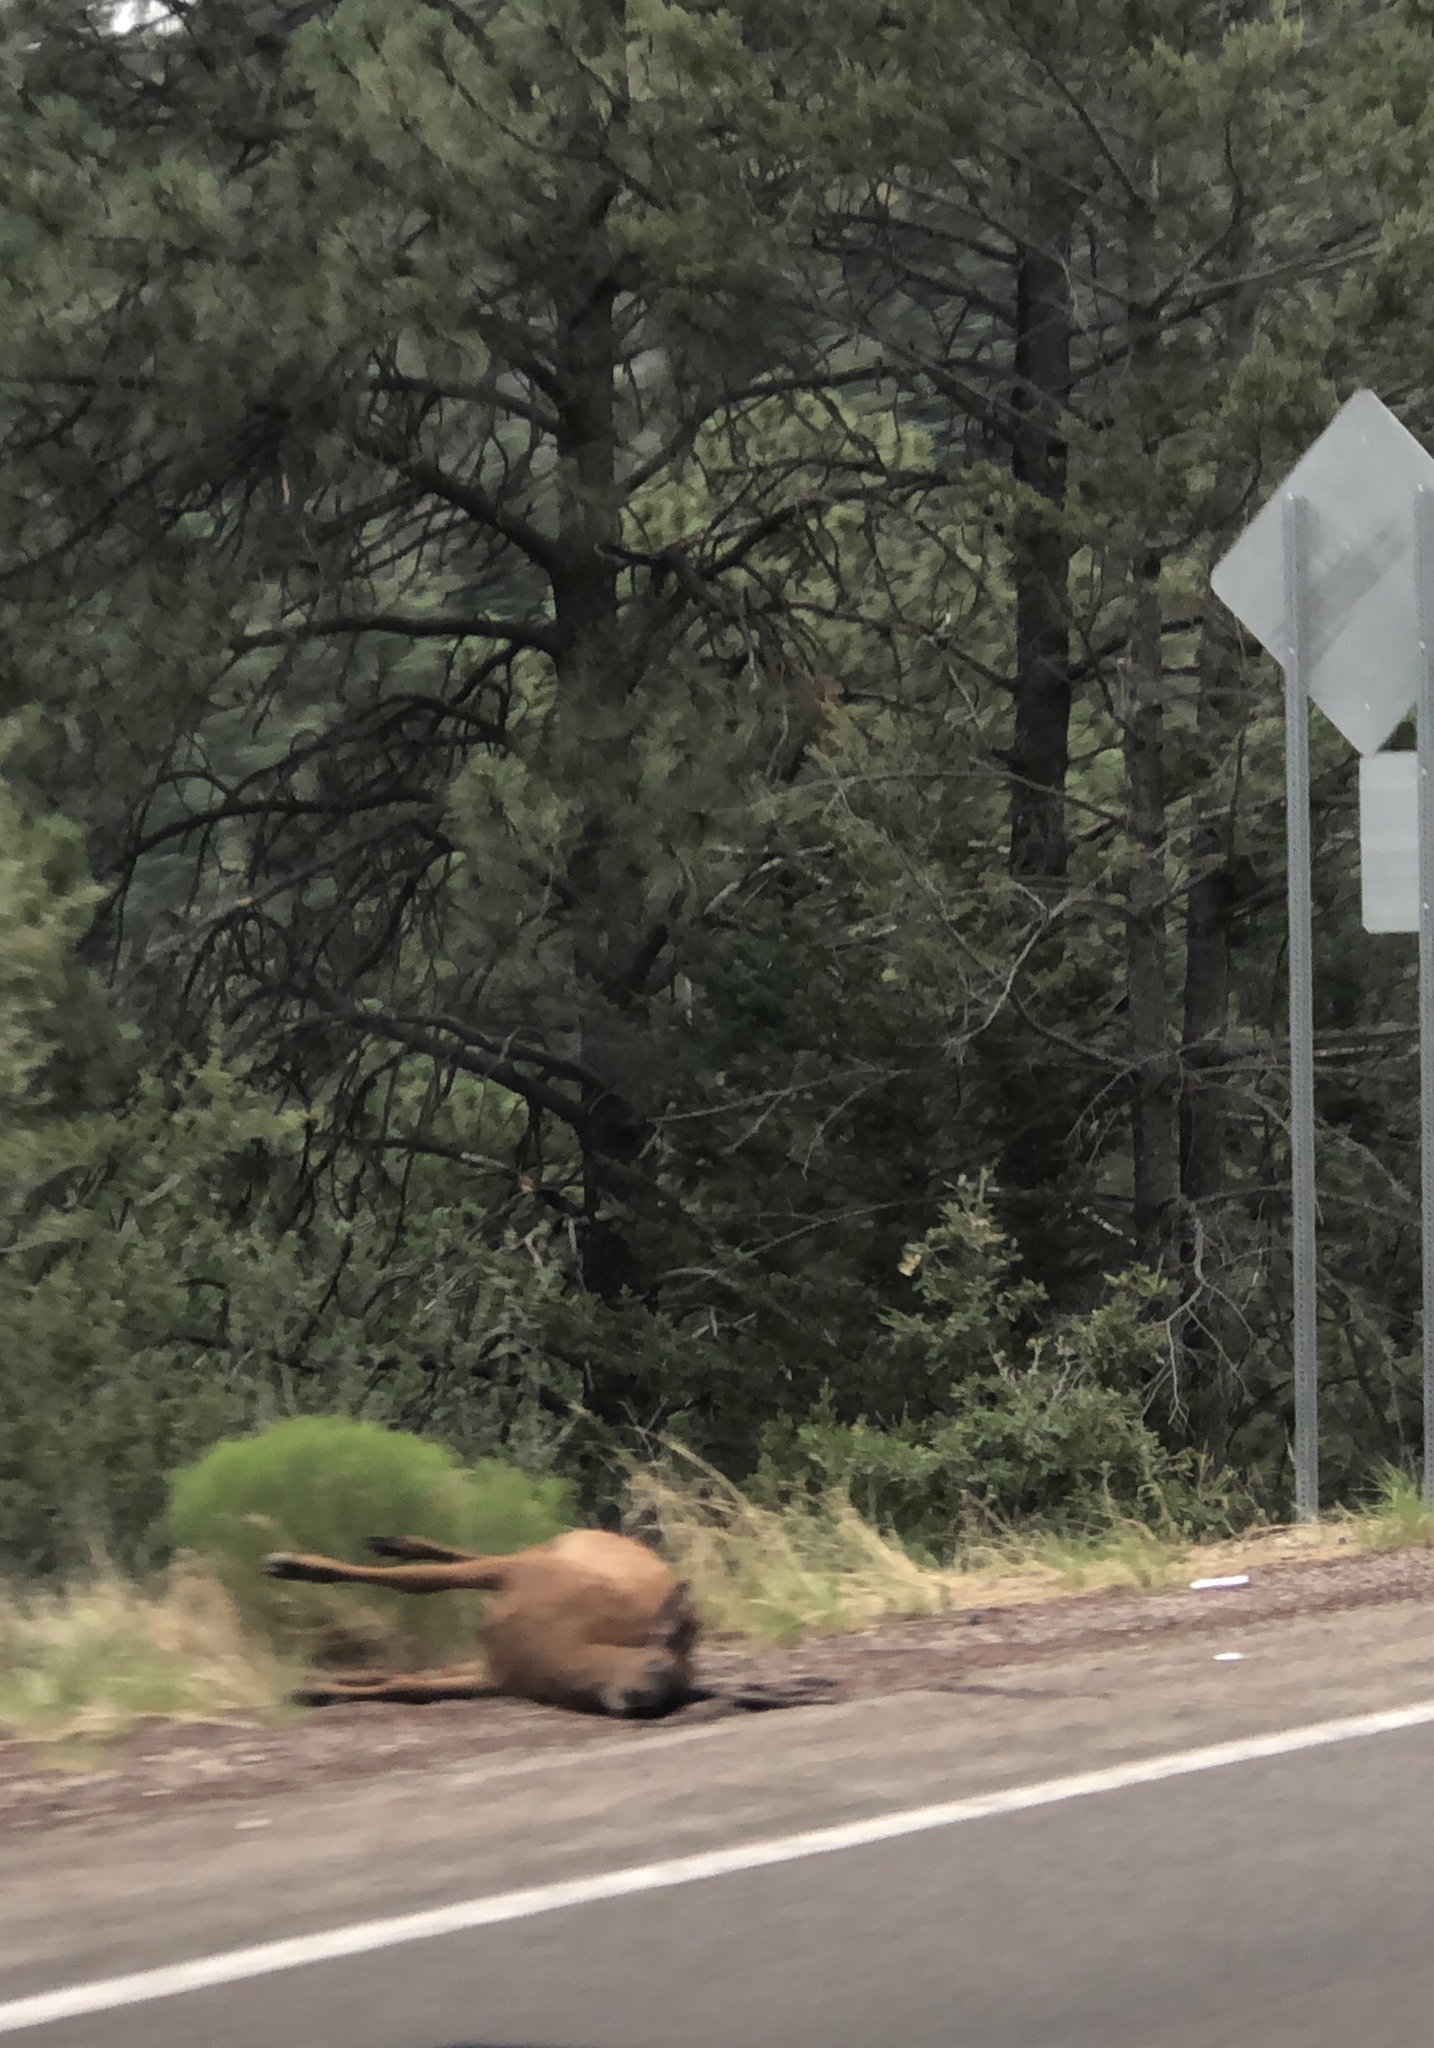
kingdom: Animalia
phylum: Chordata
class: Mammalia
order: Artiodactyla
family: Cervidae
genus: Cervus
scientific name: Cervus elaphus
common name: Red deer
